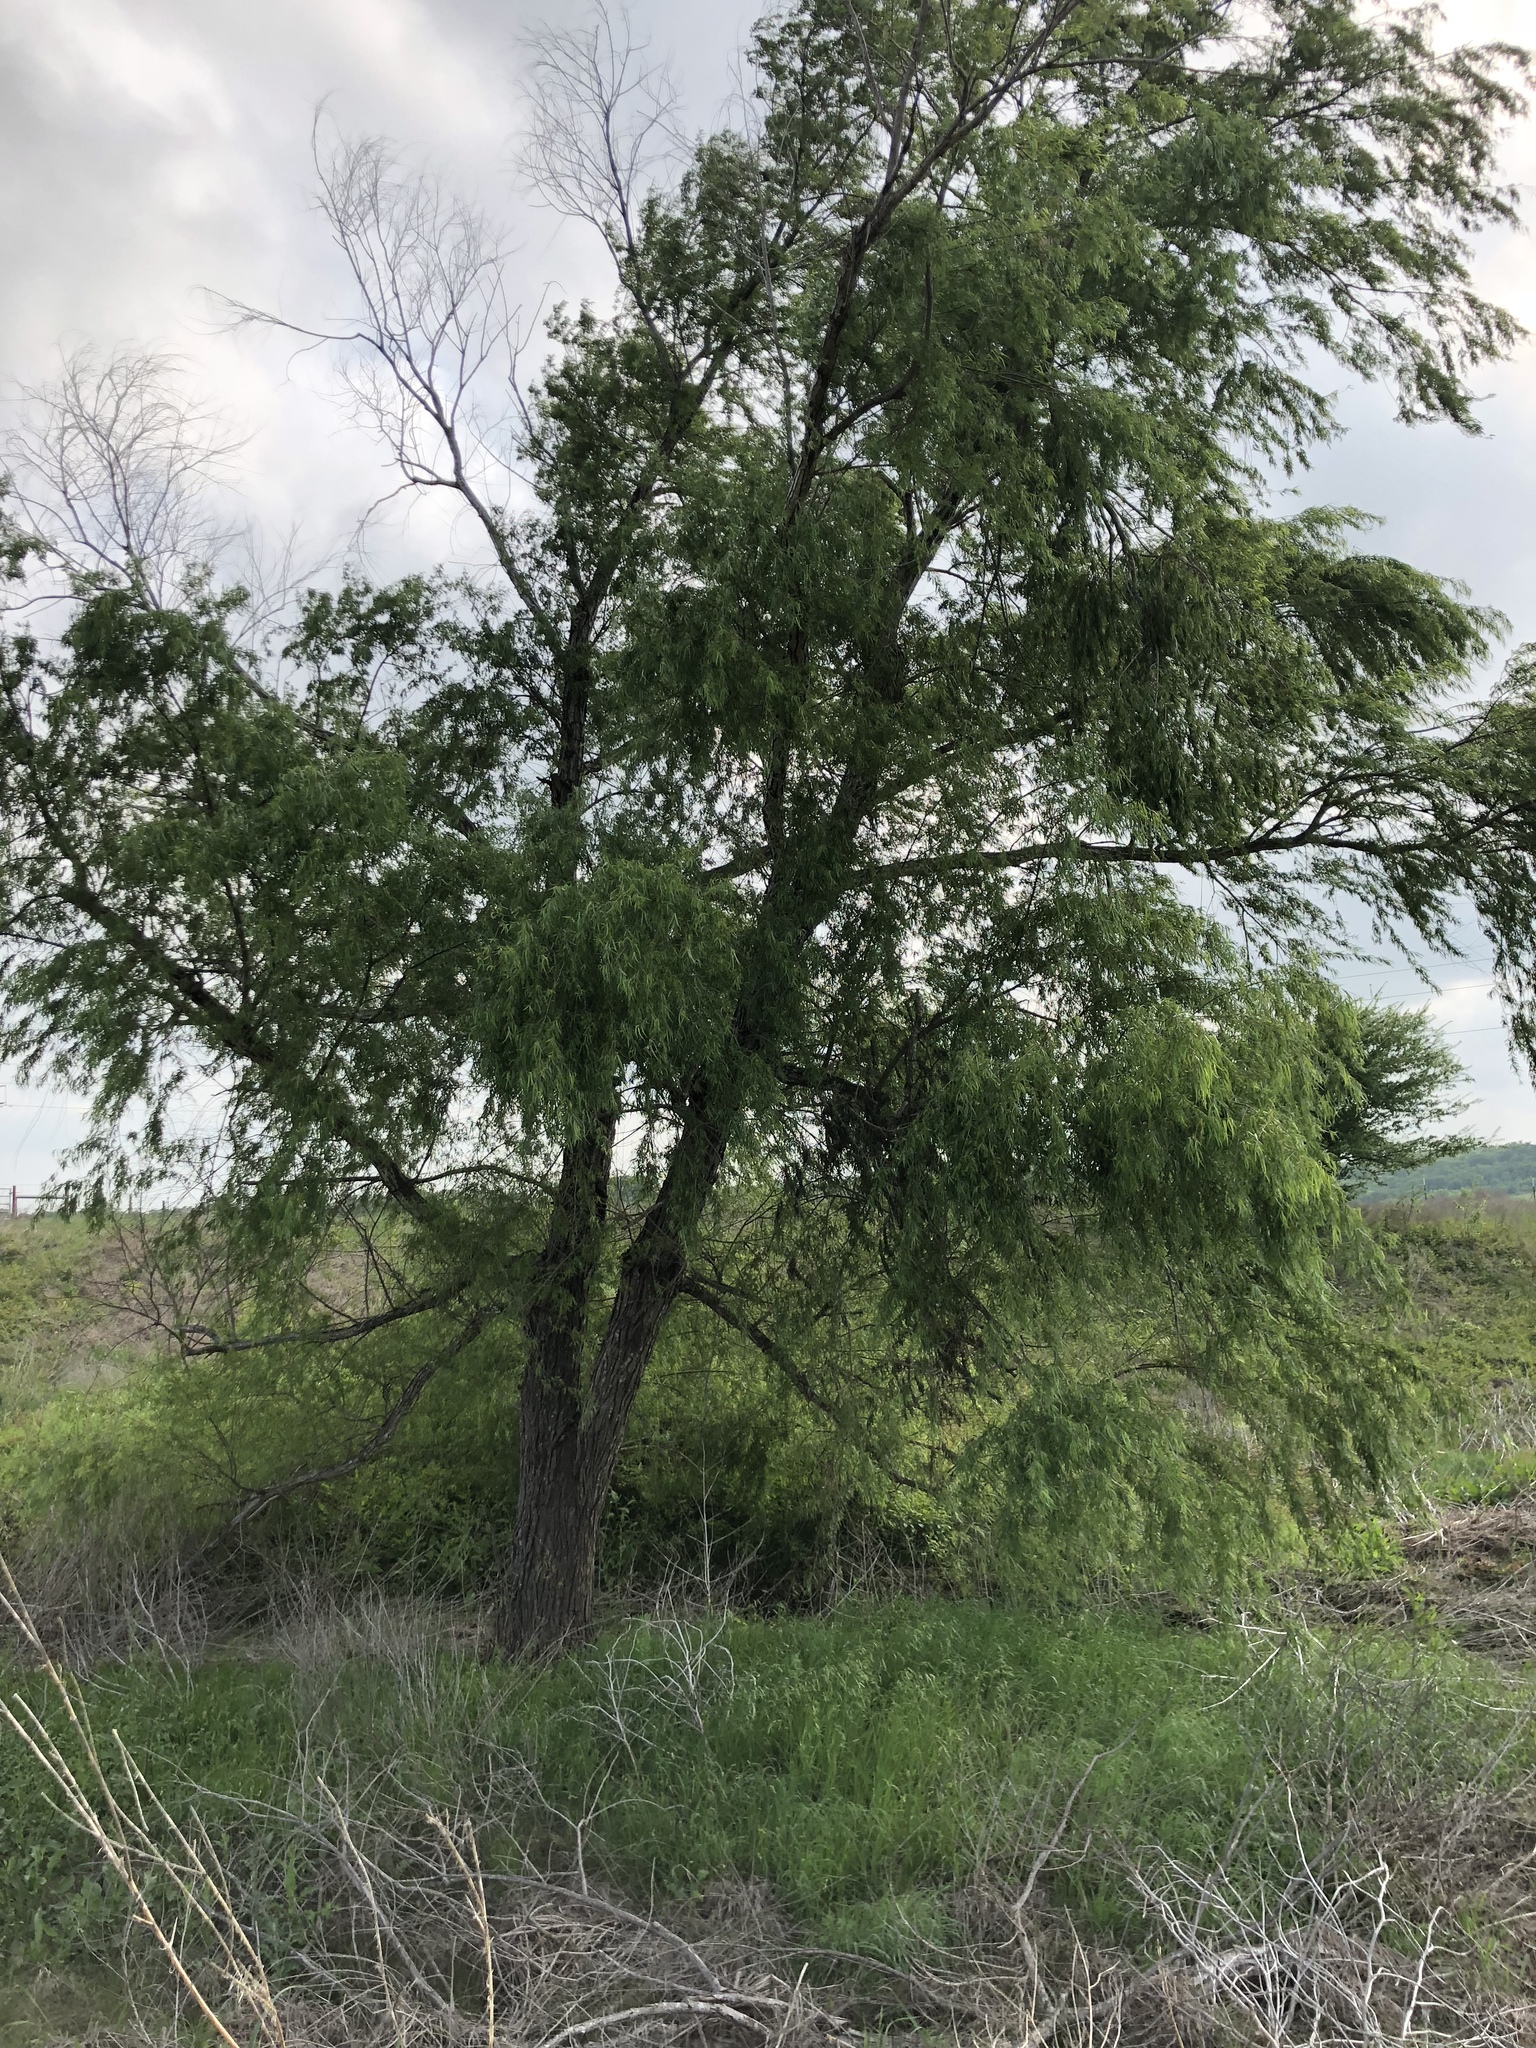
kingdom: Plantae
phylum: Tracheophyta
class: Magnoliopsida
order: Malpighiales
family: Salicaceae
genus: Salix
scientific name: Salix nigra
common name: Black willow
